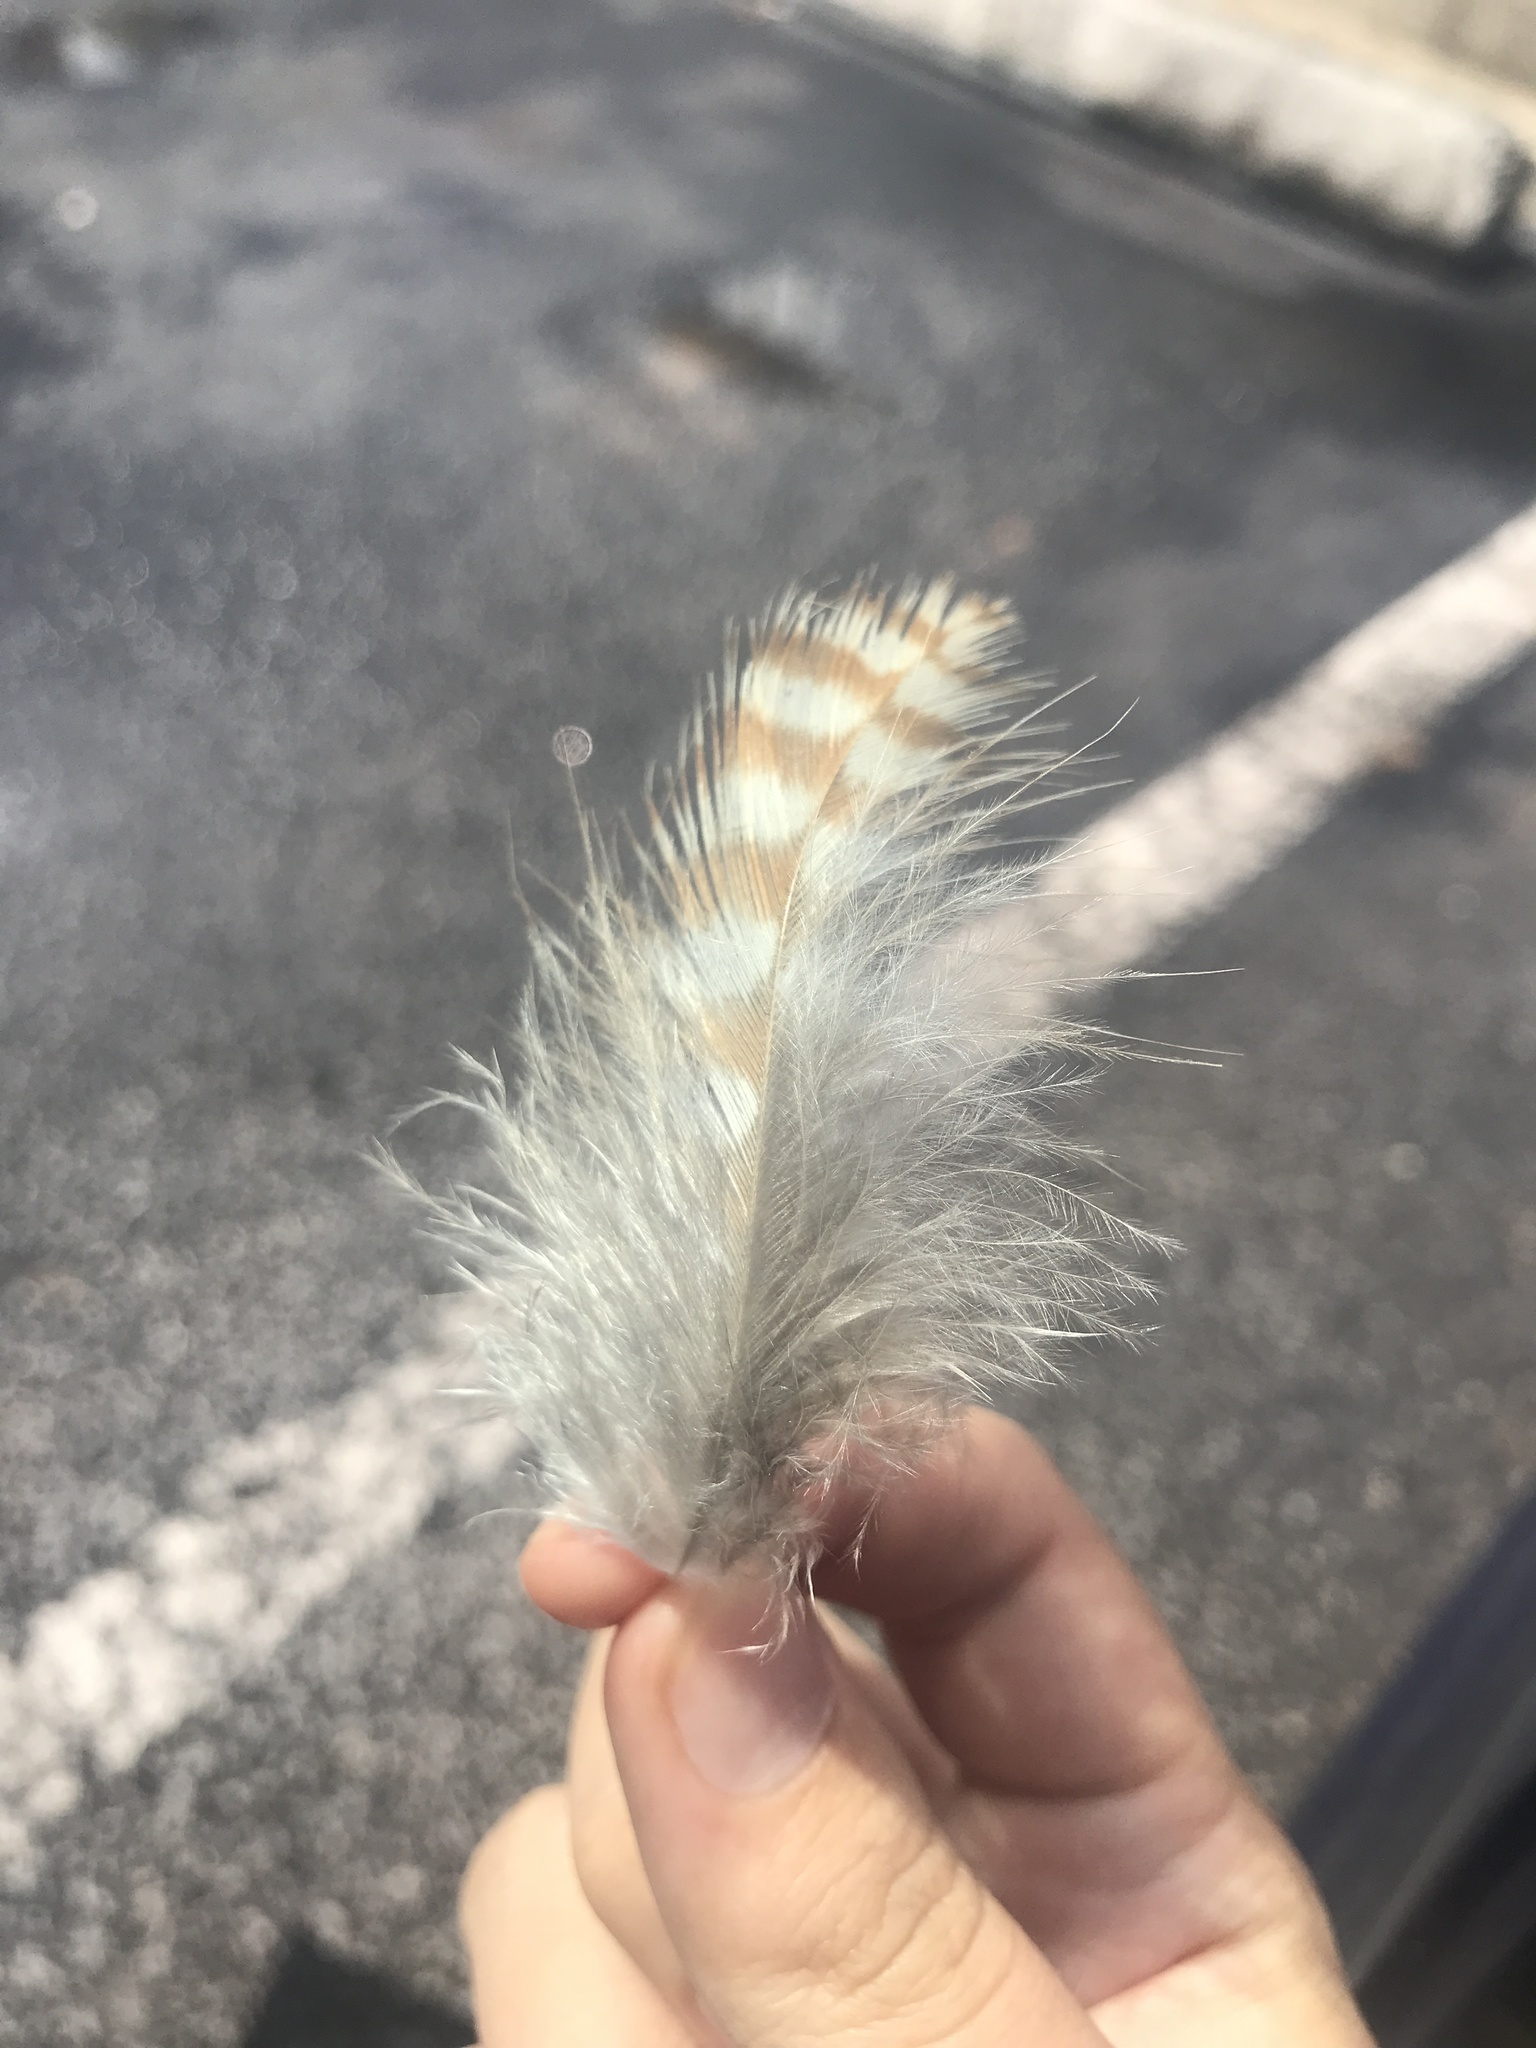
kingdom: Animalia
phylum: Chordata
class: Aves
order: Accipitriformes
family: Accipitridae
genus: Buteo
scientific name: Buteo lineatus
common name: Red-shouldered hawk
